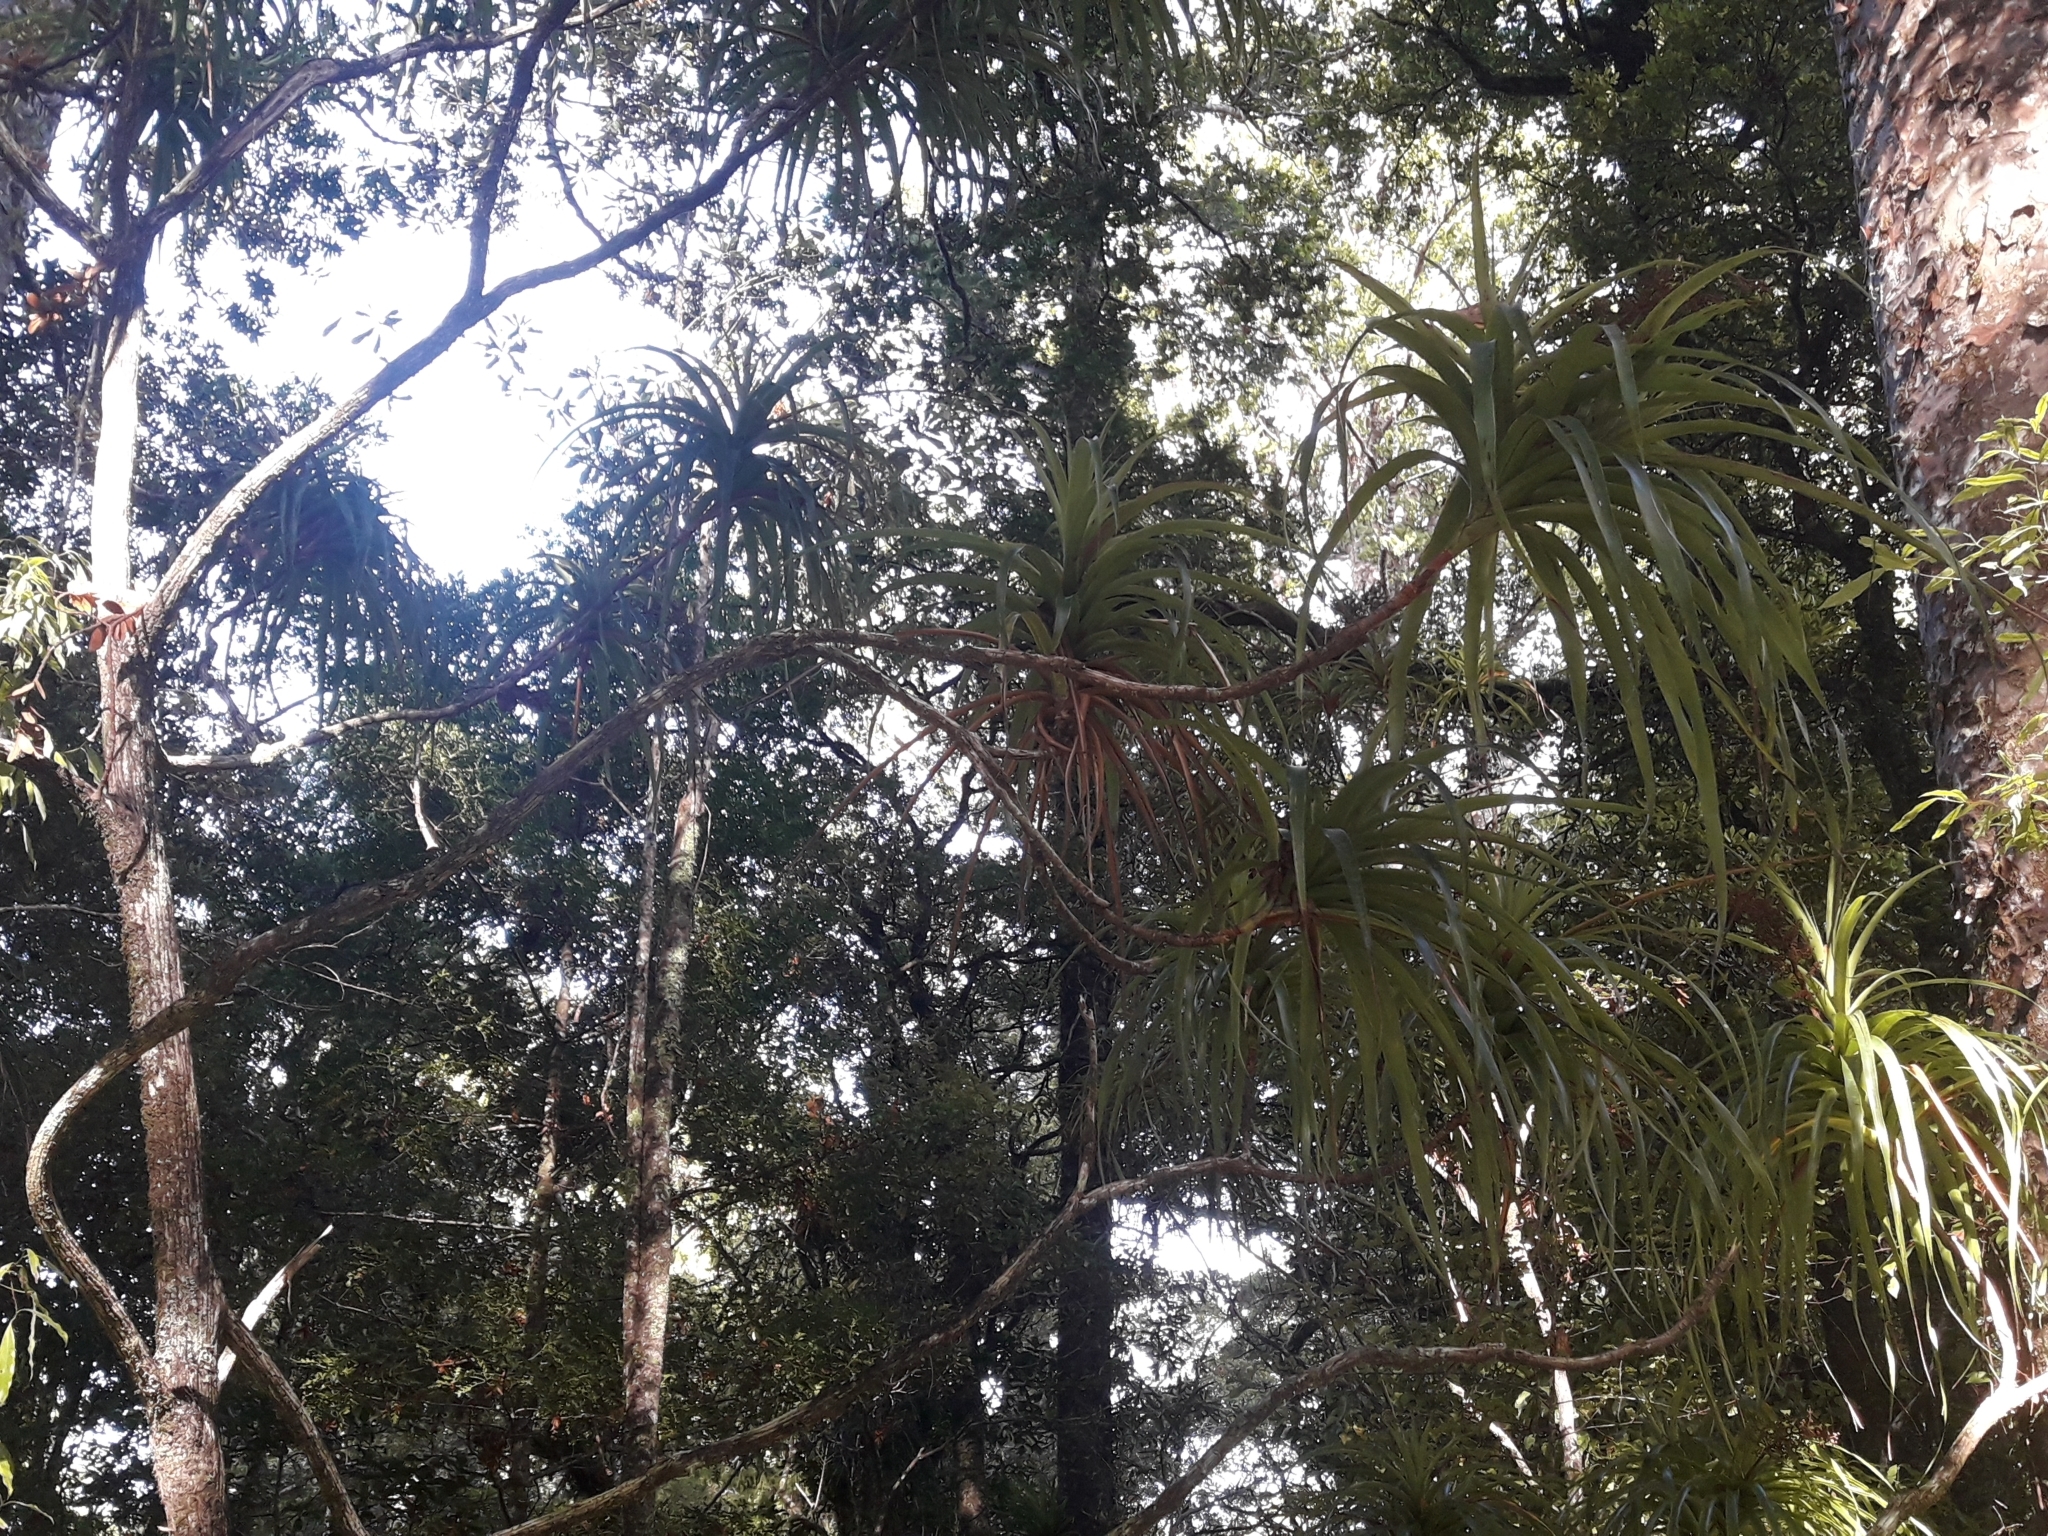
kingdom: Plantae
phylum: Tracheophyta
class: Magnoliopsida
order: Ericales
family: Ericaceae
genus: Dracophyllum
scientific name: Dracophyllum latifolium
